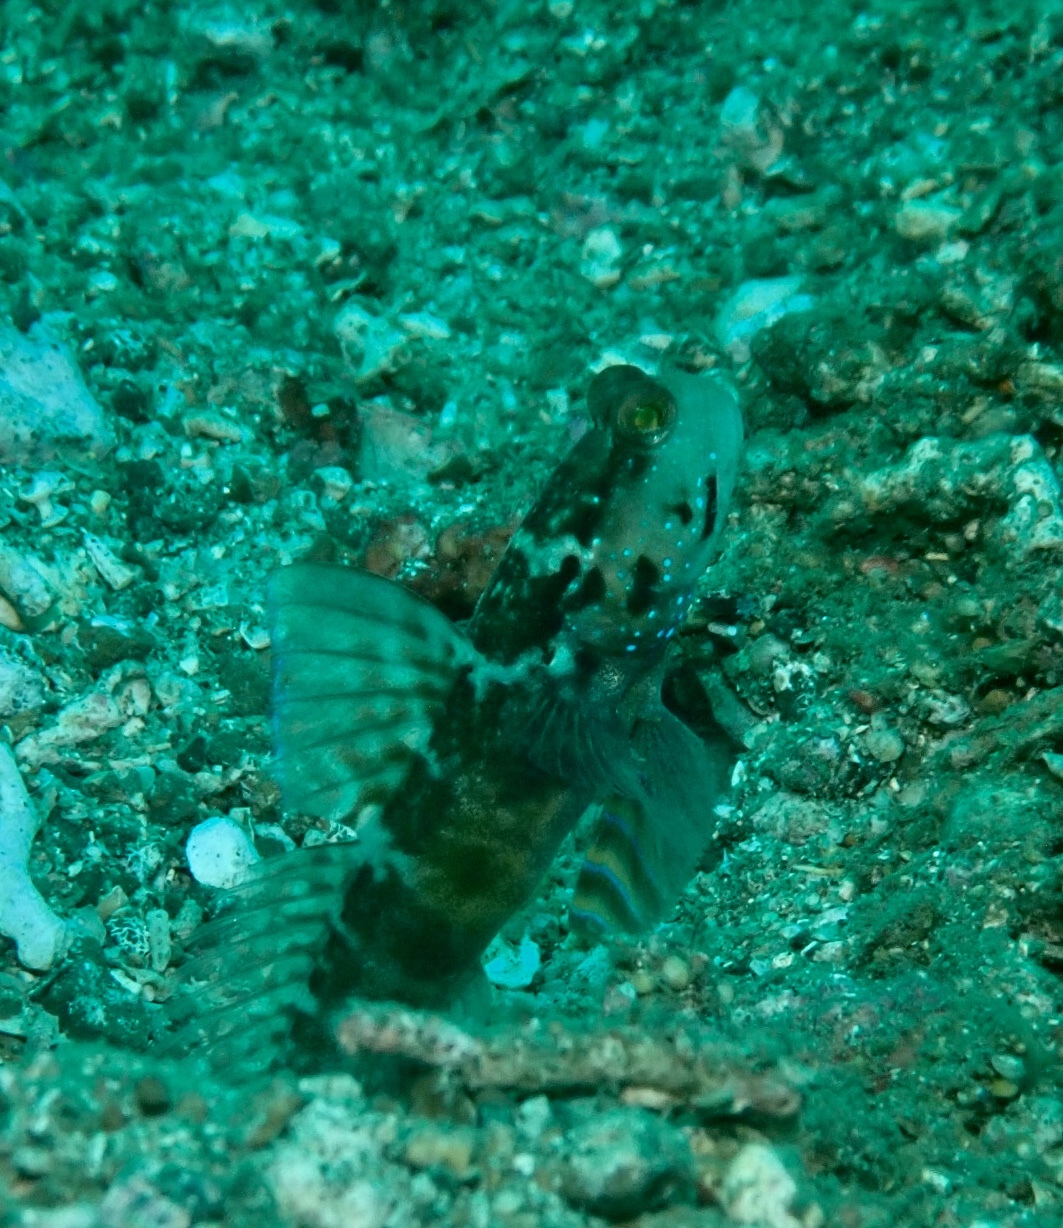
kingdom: Animalia
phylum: Chordata
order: Perciformes
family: Gobiidae
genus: Cryptocentrus
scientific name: Cryptocentrus sericus
